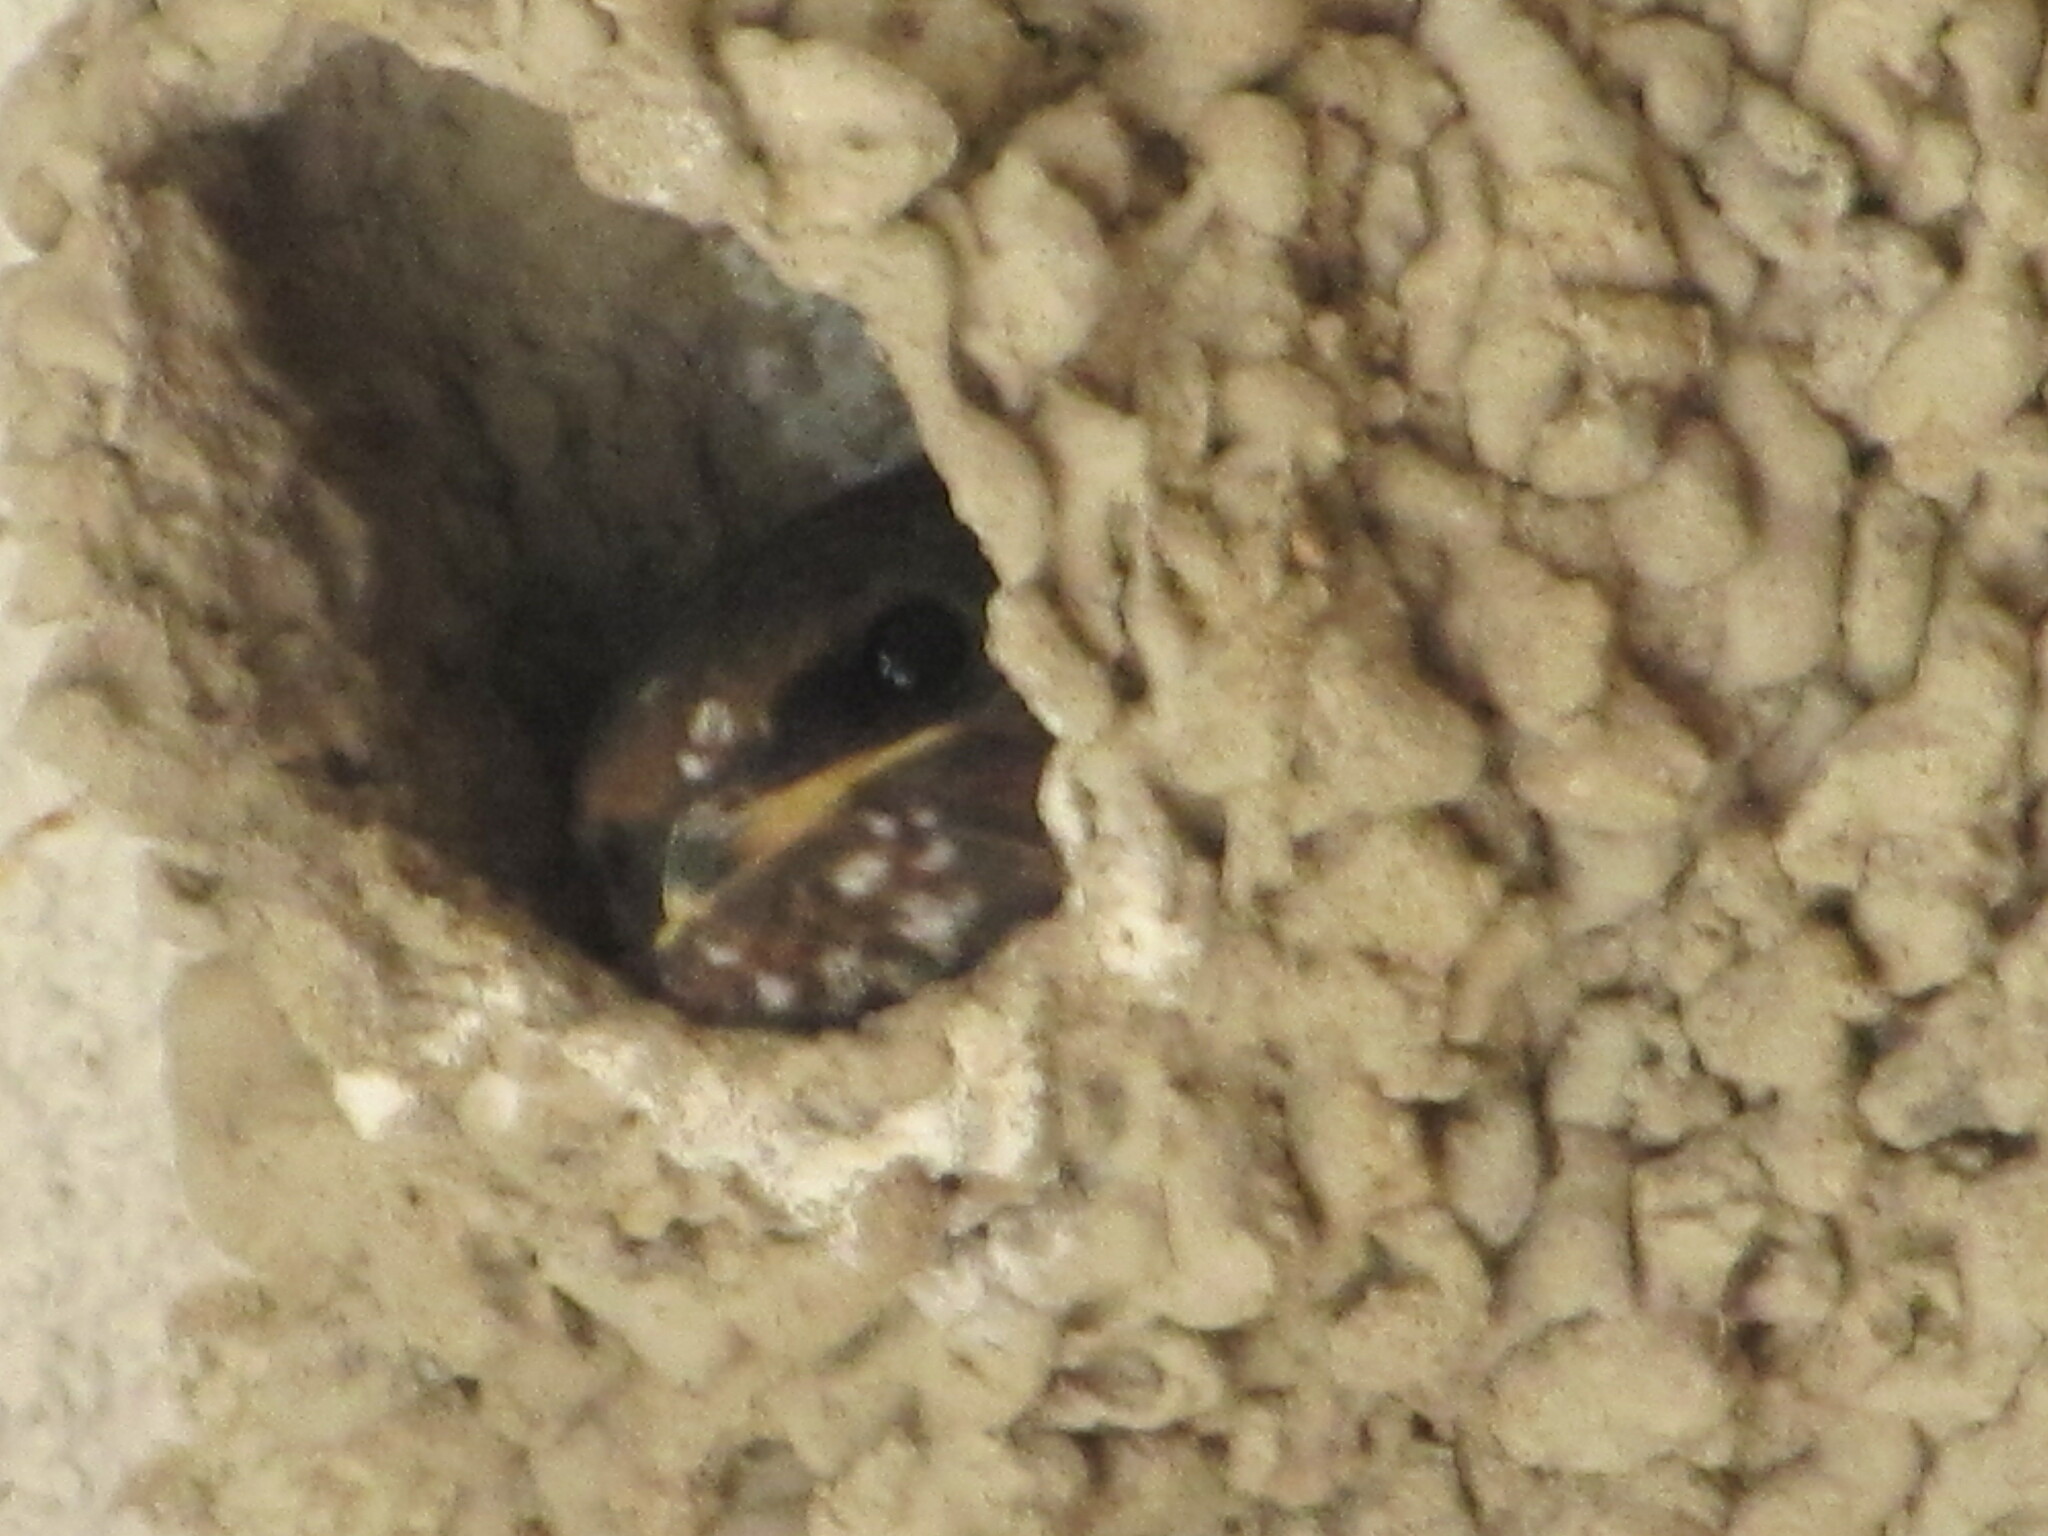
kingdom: Animalia
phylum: Chordata
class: Aves
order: Passeriformes
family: Hirundinidae
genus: Petrochelidon
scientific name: Petrochelidon pyrrhonota
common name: American cliff swallow
